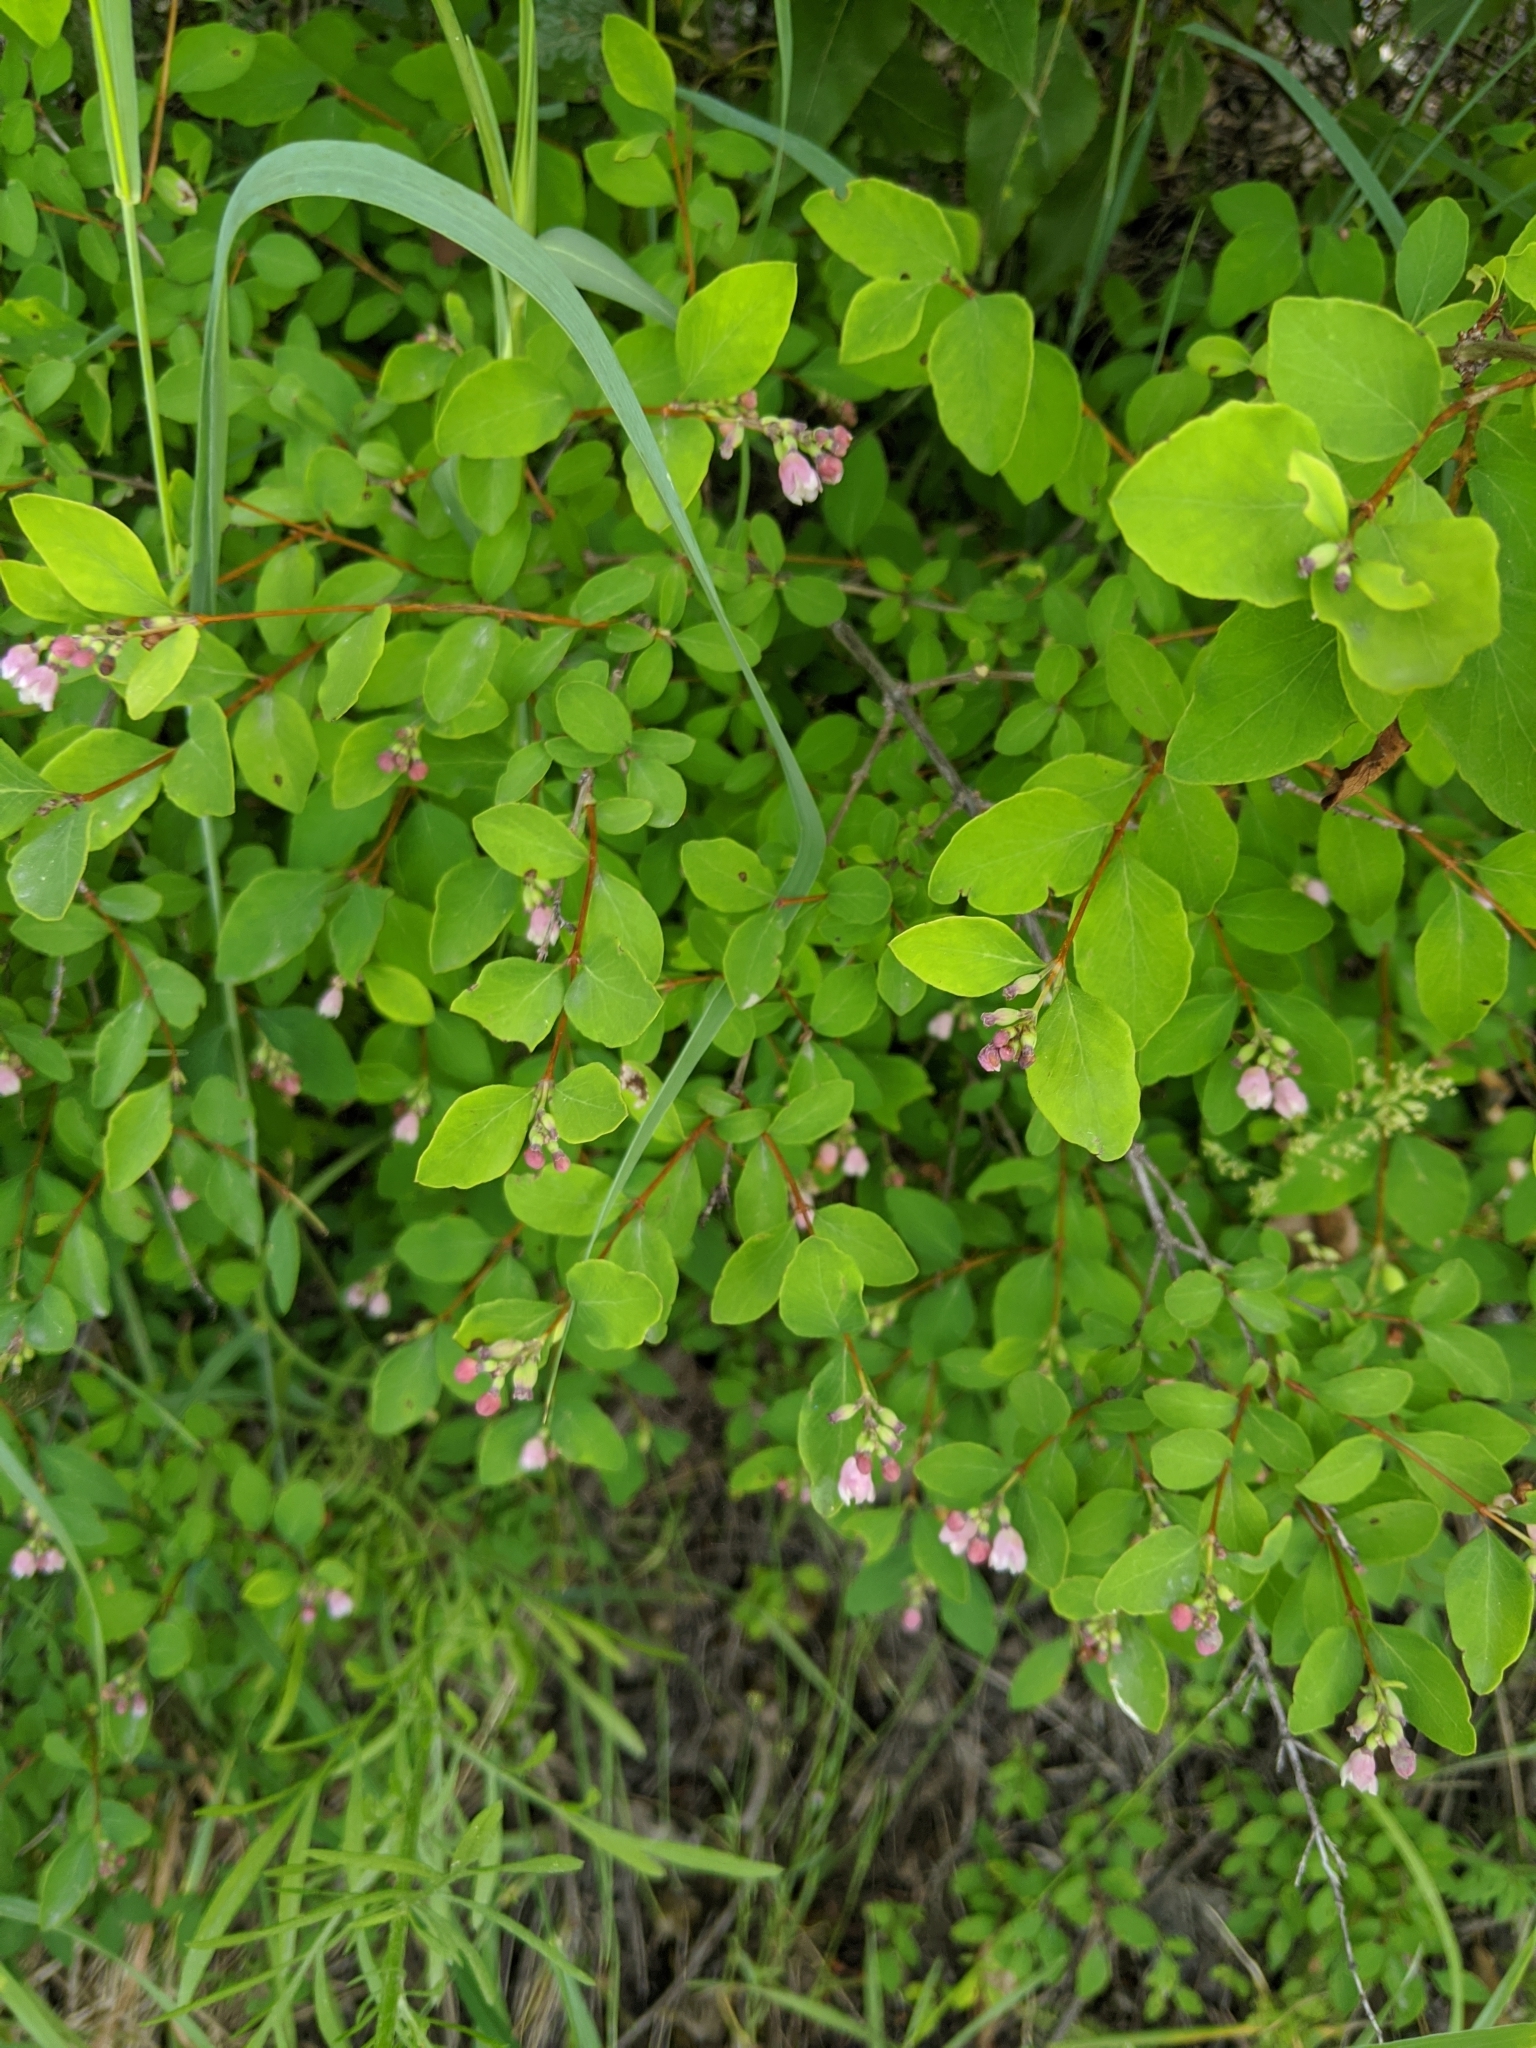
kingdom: Plantae
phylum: Tracheophyta
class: Magnoliopsida
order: Dipsacales
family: Caprifoliaceae
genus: Symphoricarpos
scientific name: Symphoricarpos albus
